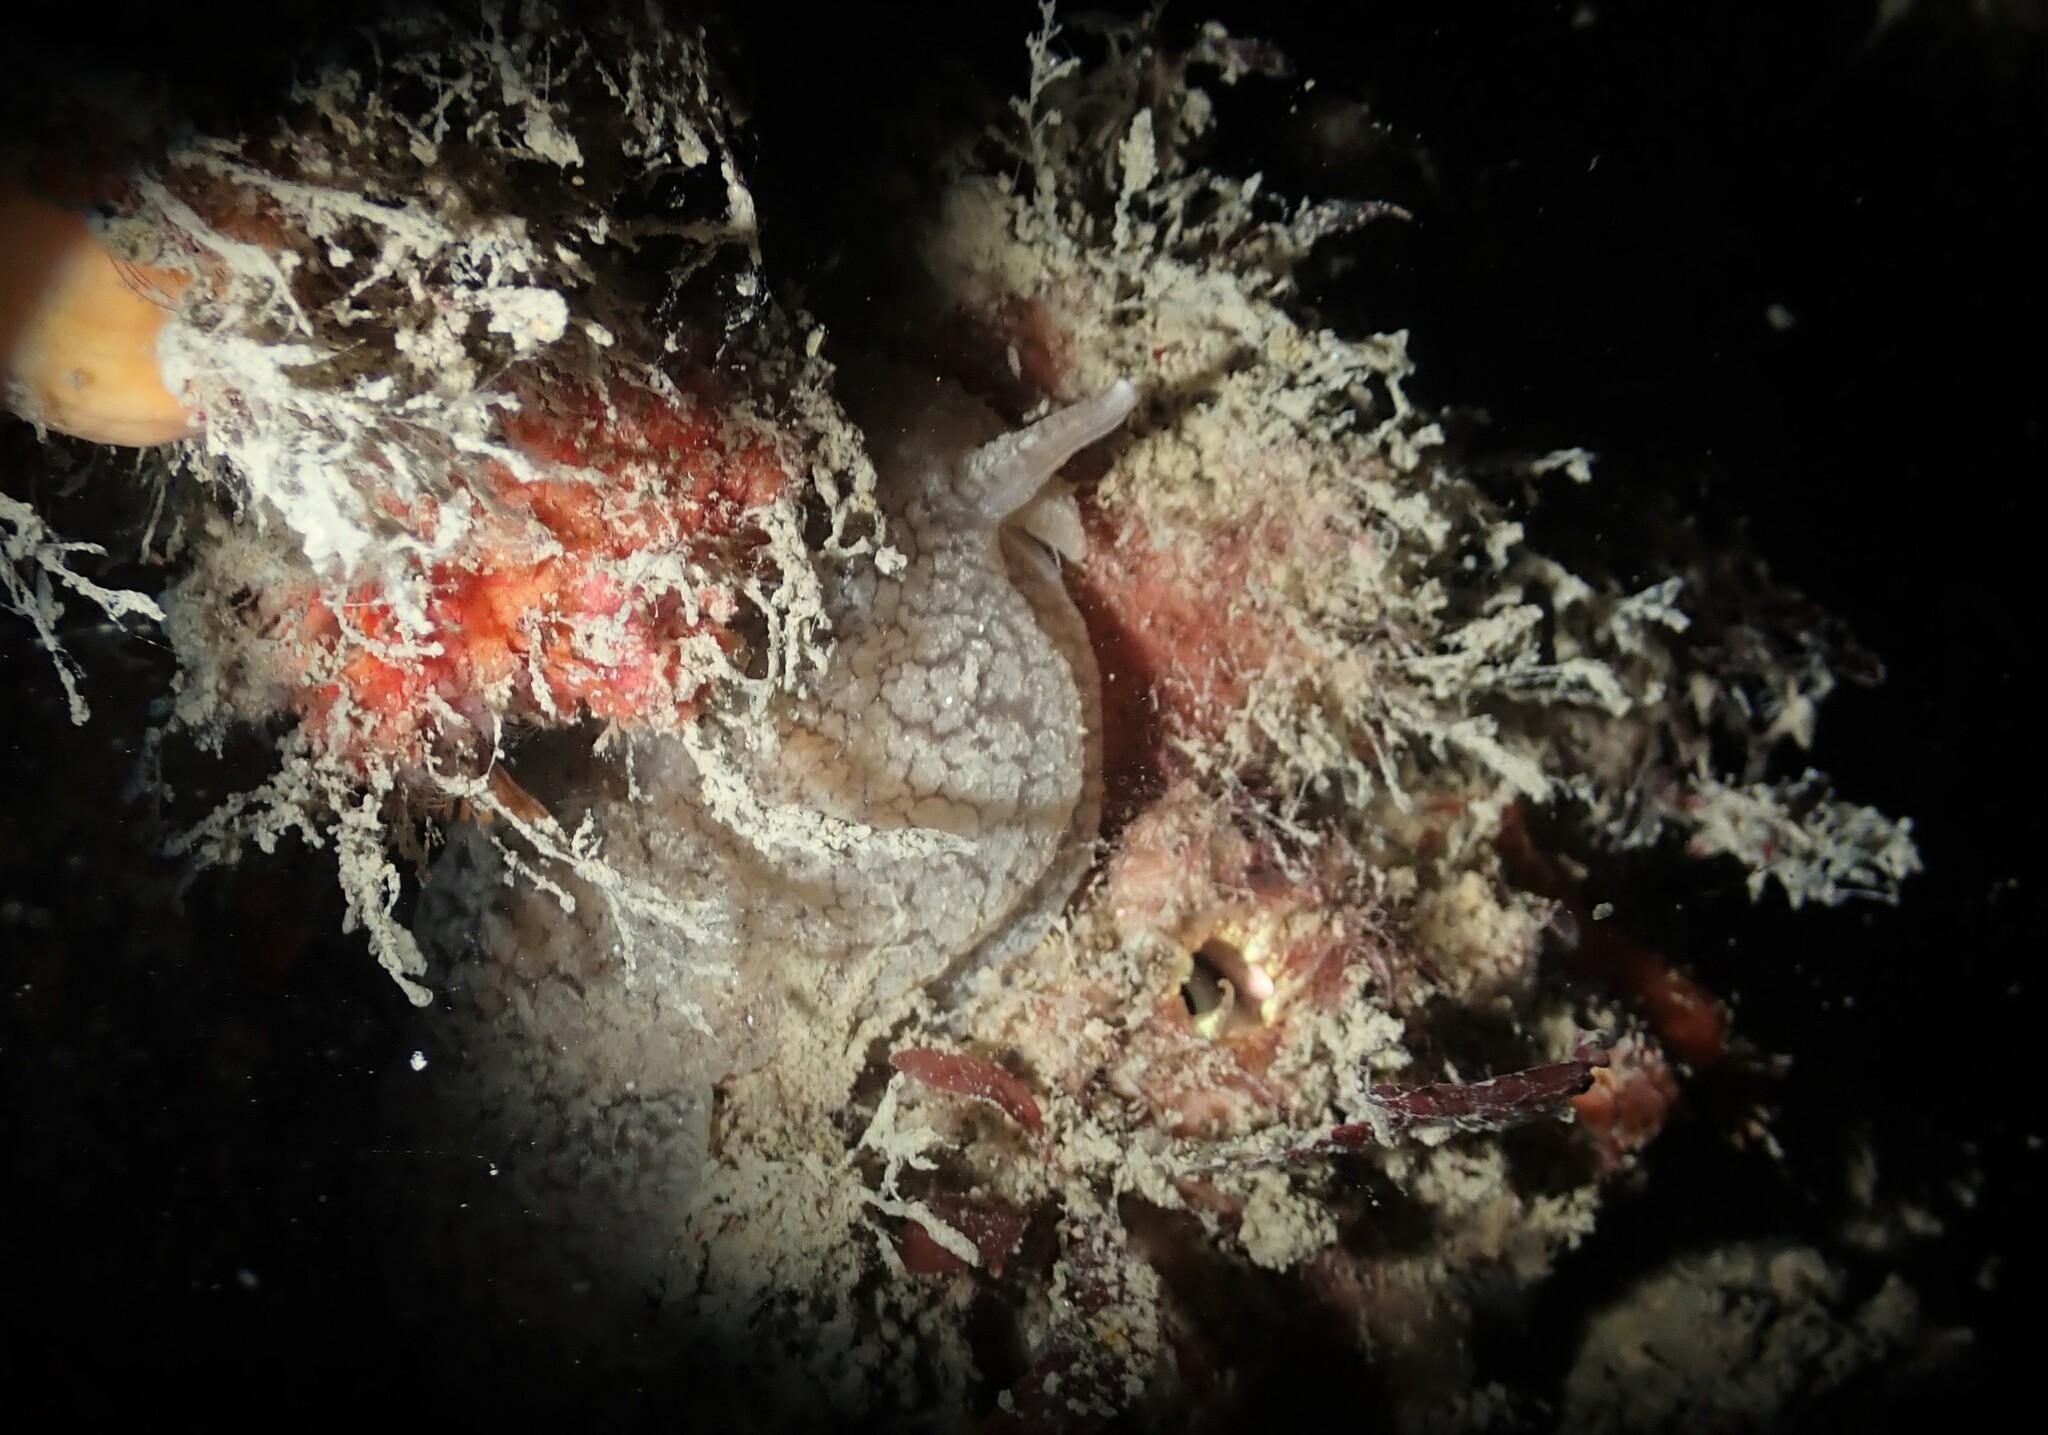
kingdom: Animalia
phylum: Mollusca
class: Gastropoda
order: Pleurobranchida
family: Pleurobranchaeidae
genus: Pleurobranchaea
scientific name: Pleurobranchaea maculata
